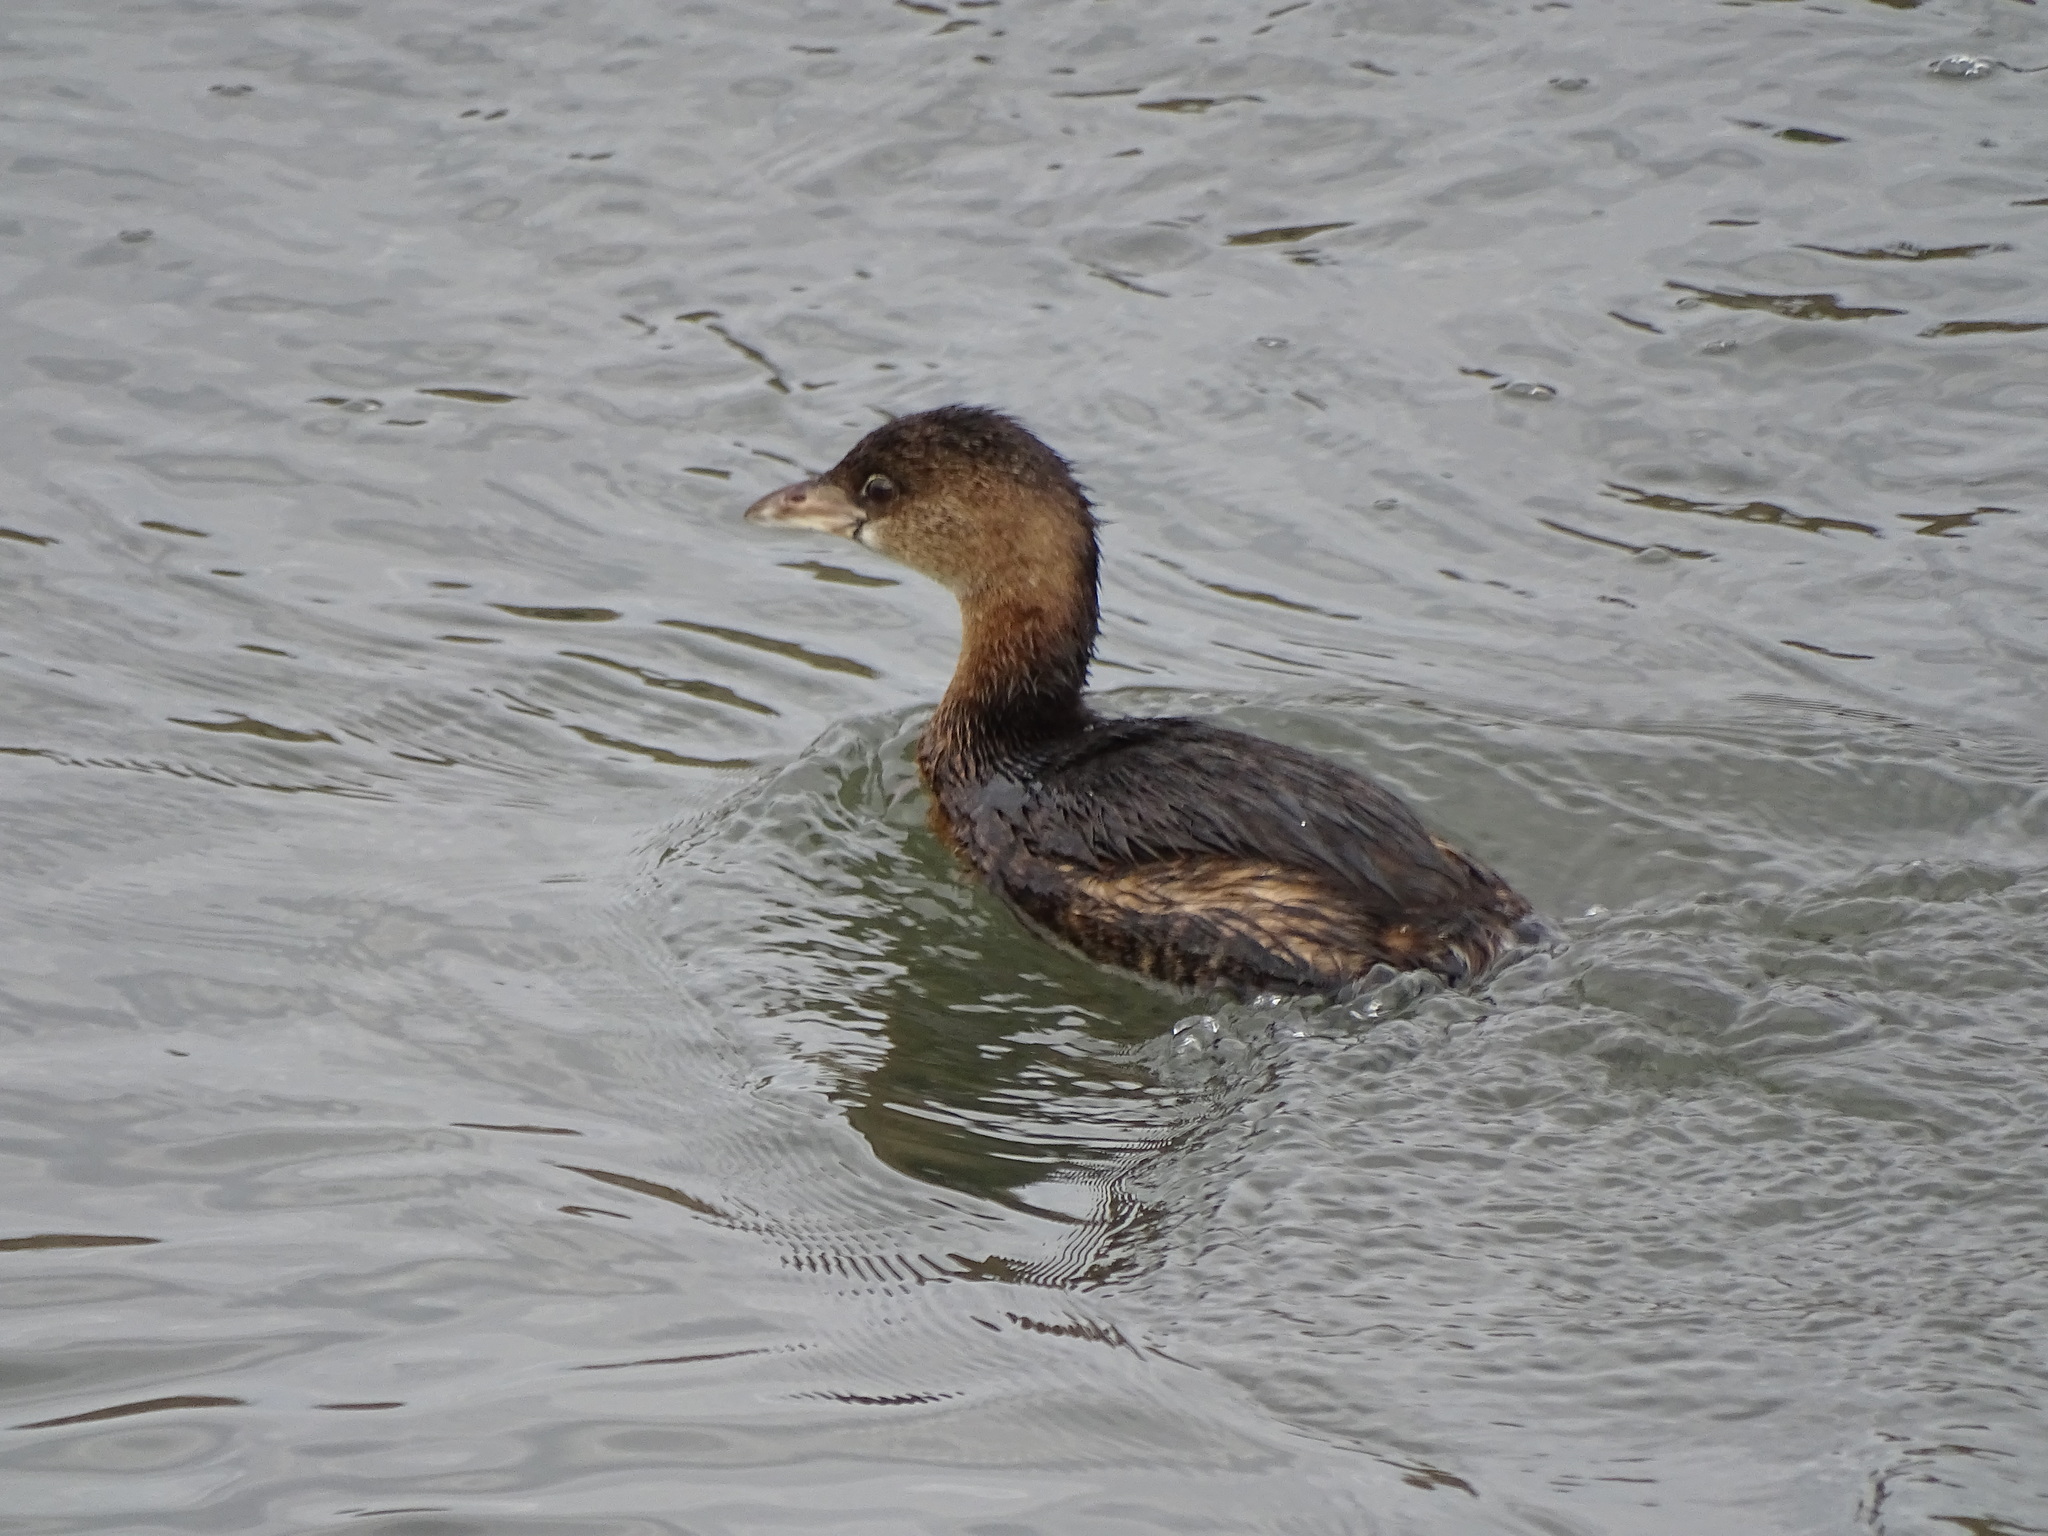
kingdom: Animalia
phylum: Chordata
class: Aves
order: Podicipediformes
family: Podicipedidae
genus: Podilymbus
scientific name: Podilymbus podiceps
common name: Pied-billed grebe
